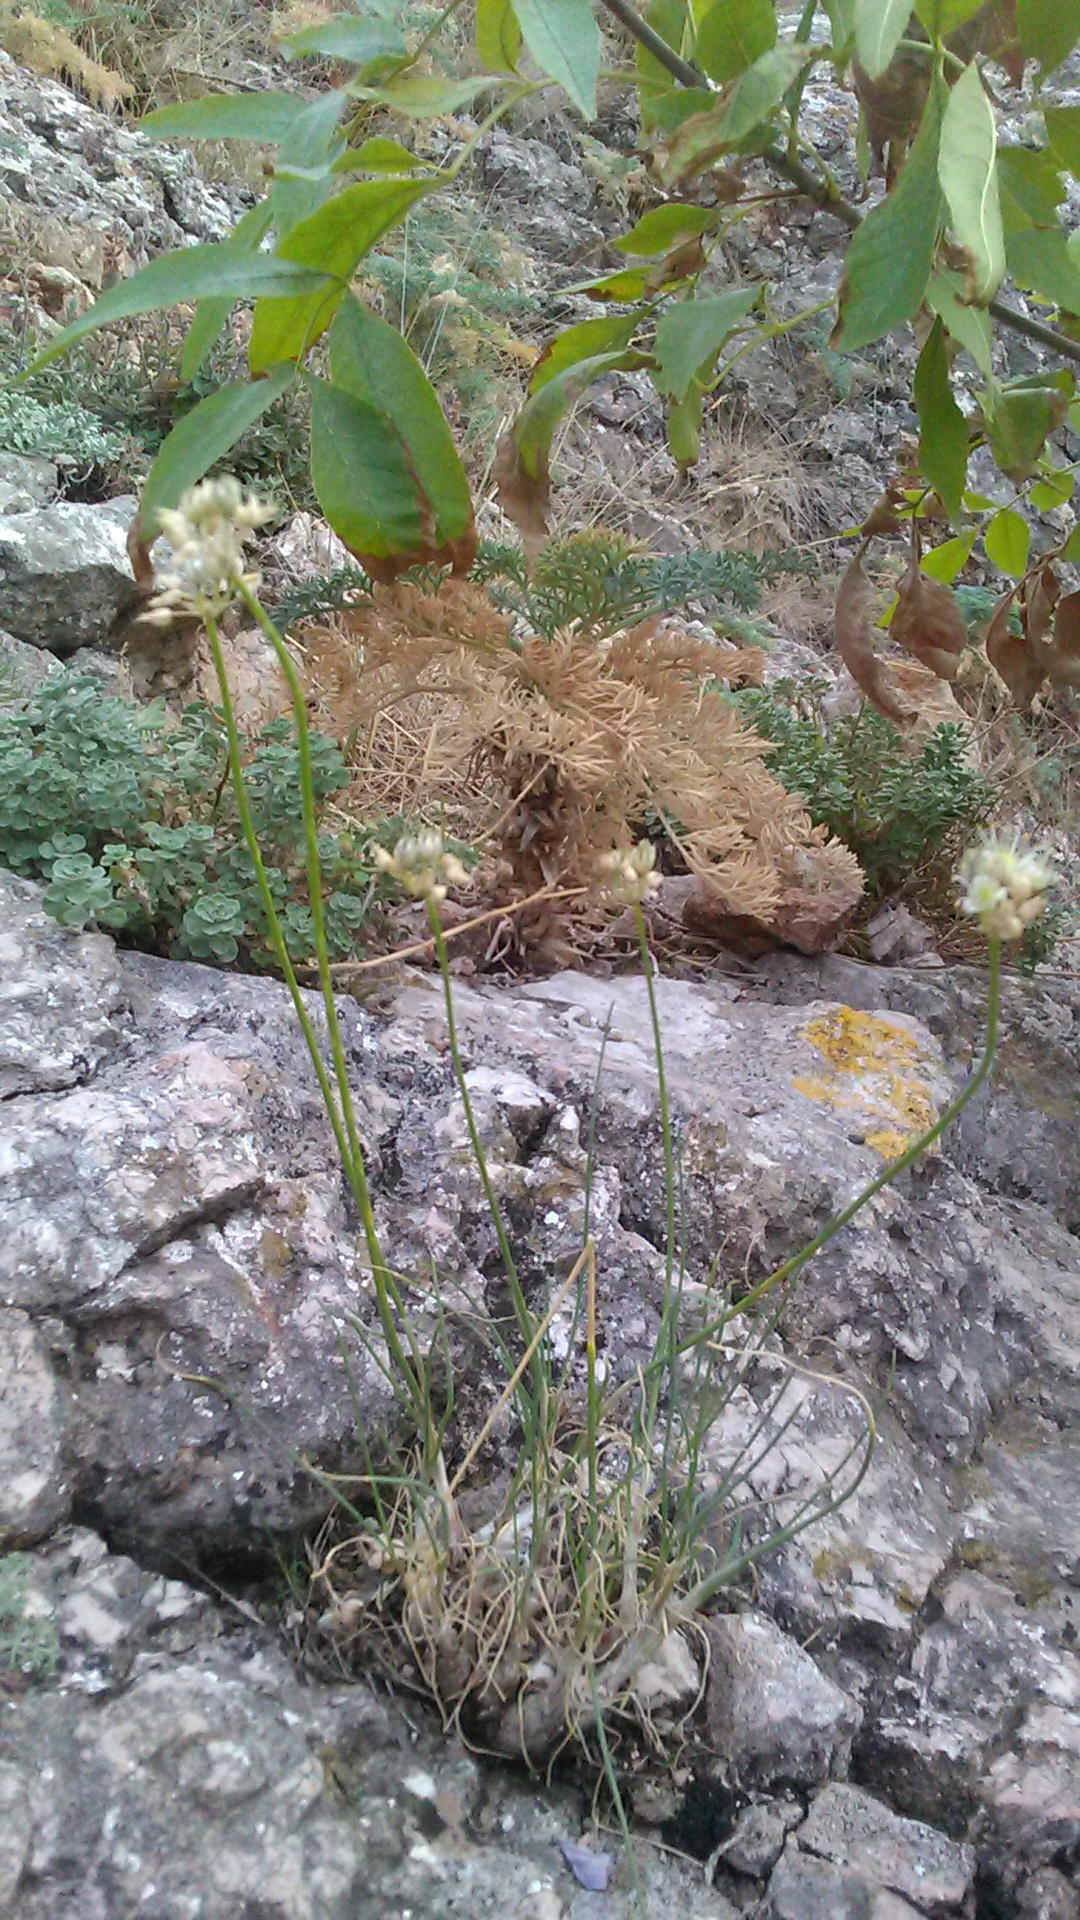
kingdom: Plantae
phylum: Tracheophyta
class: Liliopsida
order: Asparagales
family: Amaryllidaceae
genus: Allium
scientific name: Allium marschallianum
